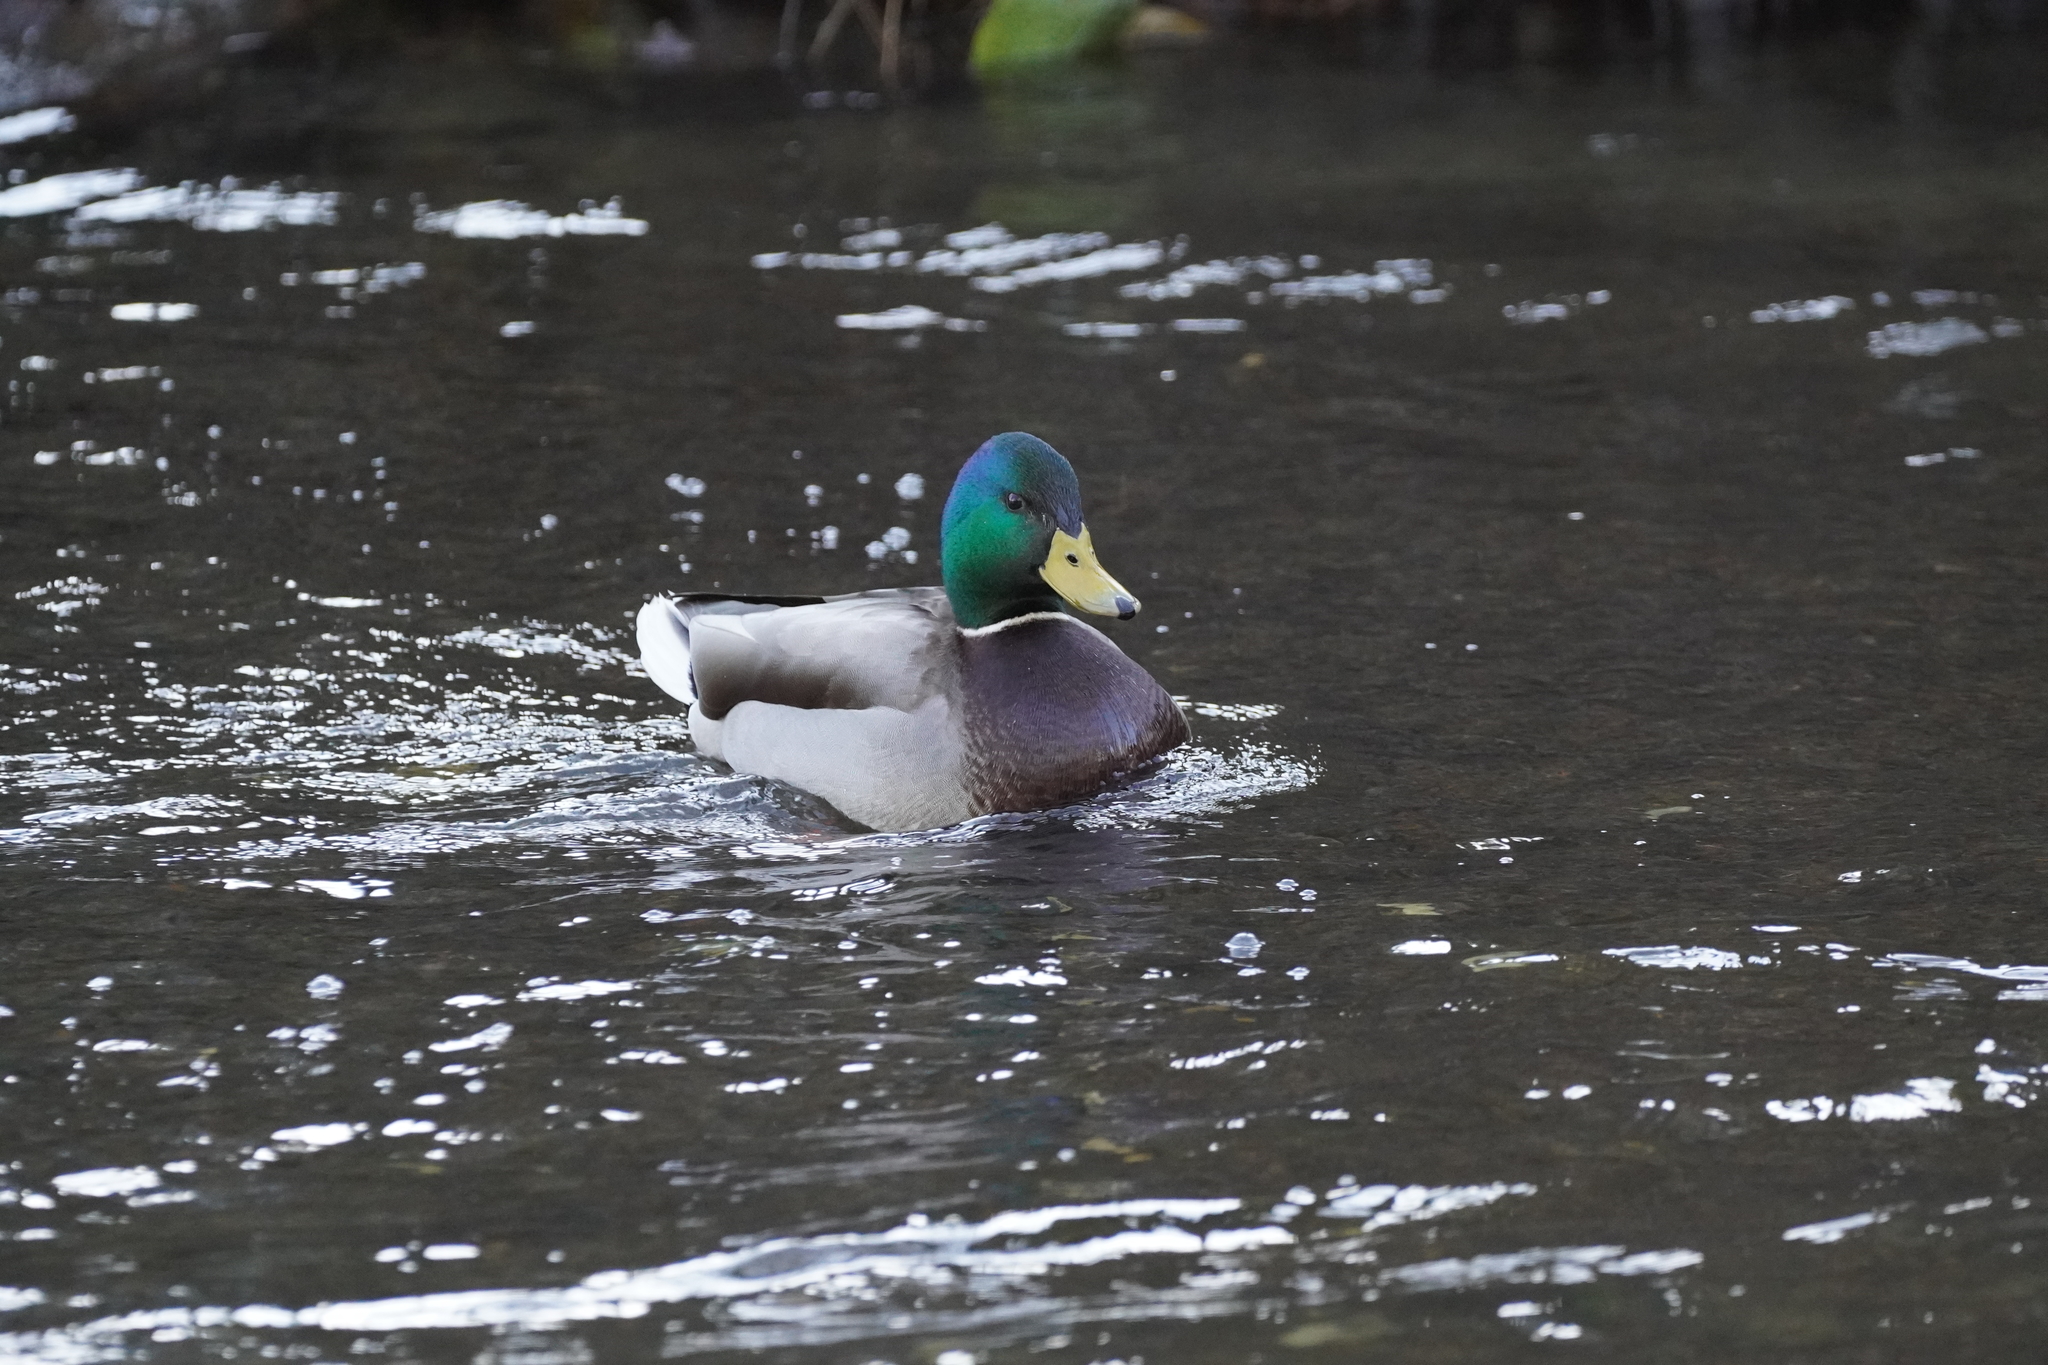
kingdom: Animalia
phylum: Chordata
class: Aves
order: Anseriformes
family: Anatidae
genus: Anas
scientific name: Anas platyrhynchos
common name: Mallard
